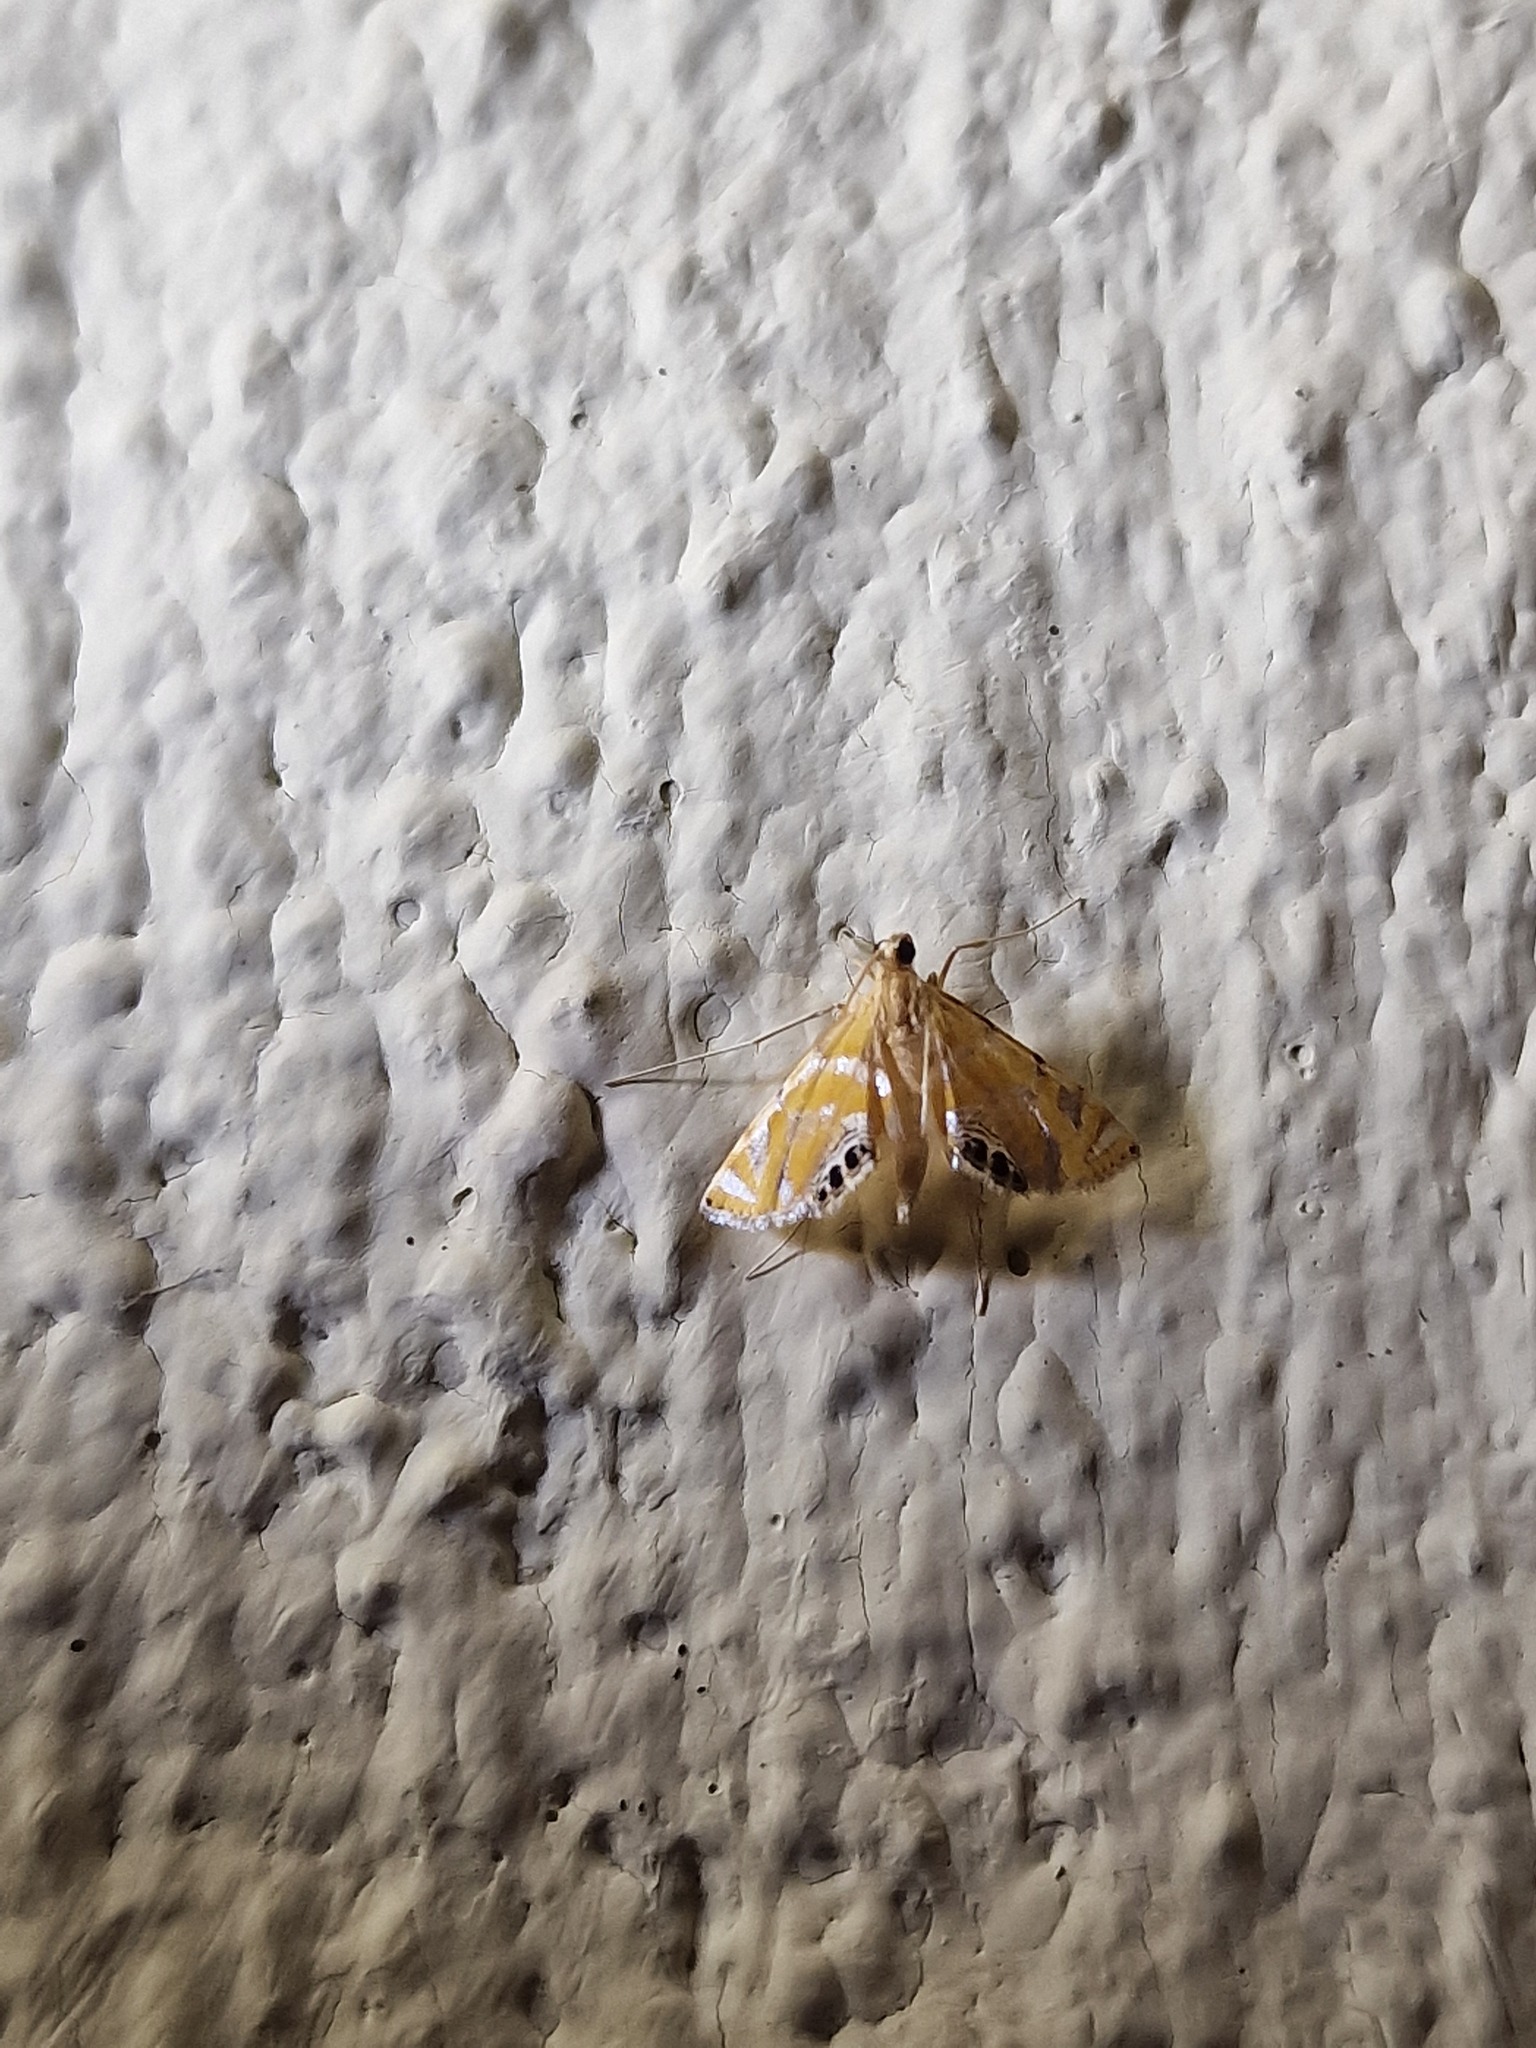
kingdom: Animalia
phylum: Arthropoda
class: Insecta
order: Lepidoptera
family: Crambidae
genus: Argyractis
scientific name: Argyractis capensis
